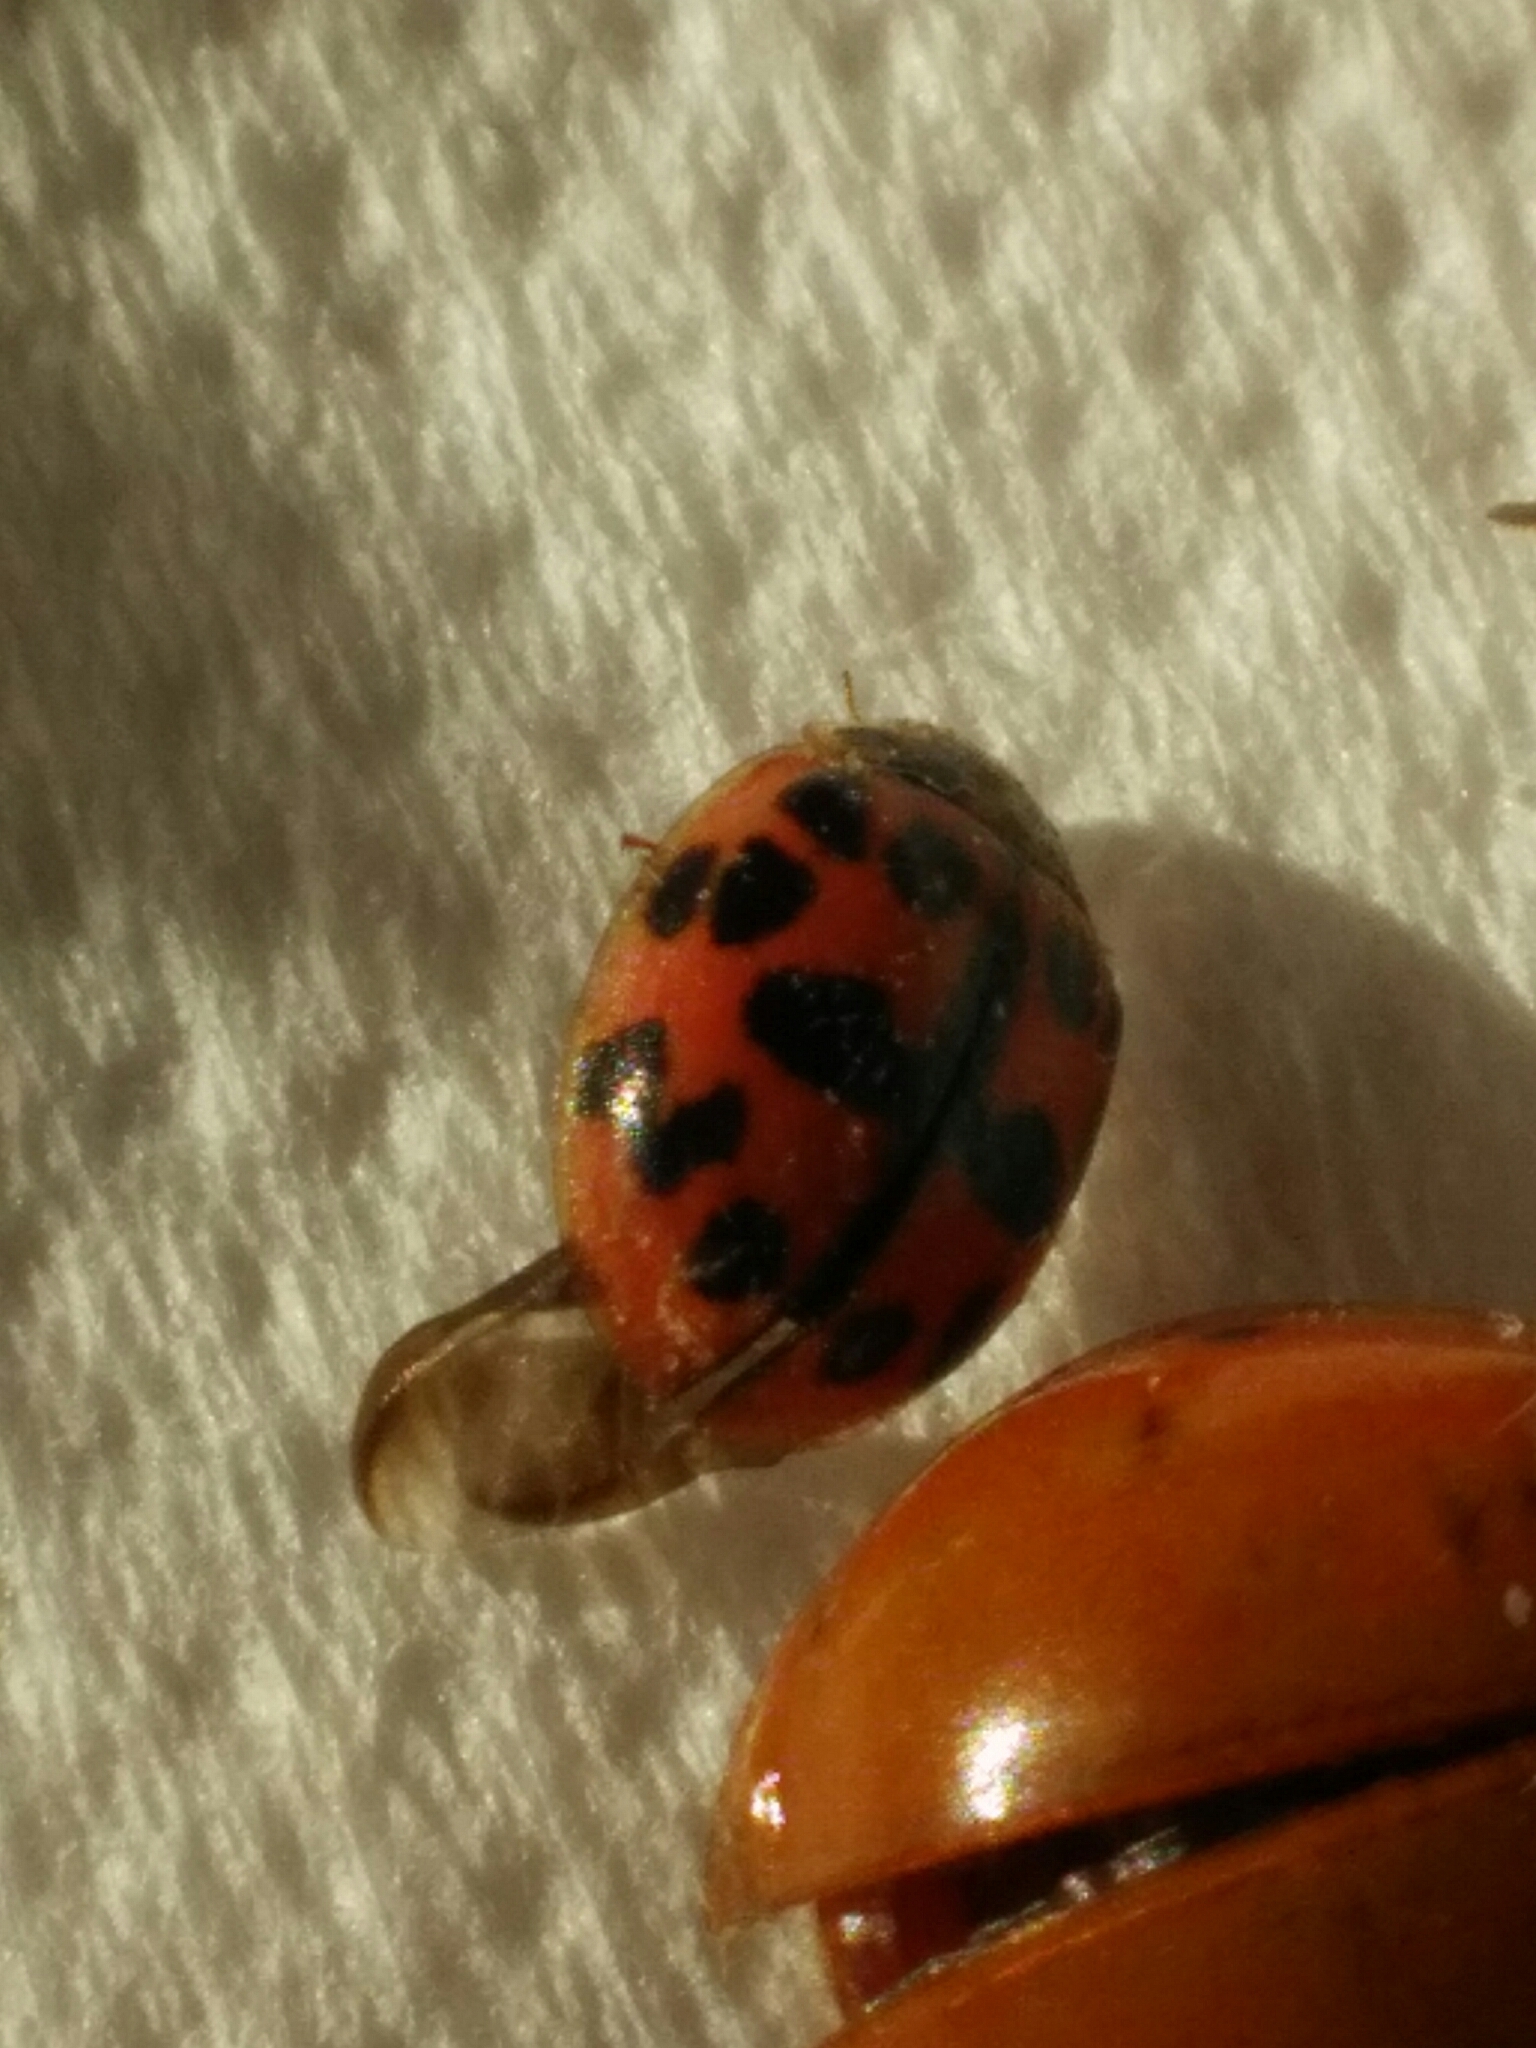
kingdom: Animalia
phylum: Arthropoda
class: Insecta
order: Coleoptera
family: Coccinellidae
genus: Oenopia
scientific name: Oenopia conglobata
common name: Ladybird beetle
